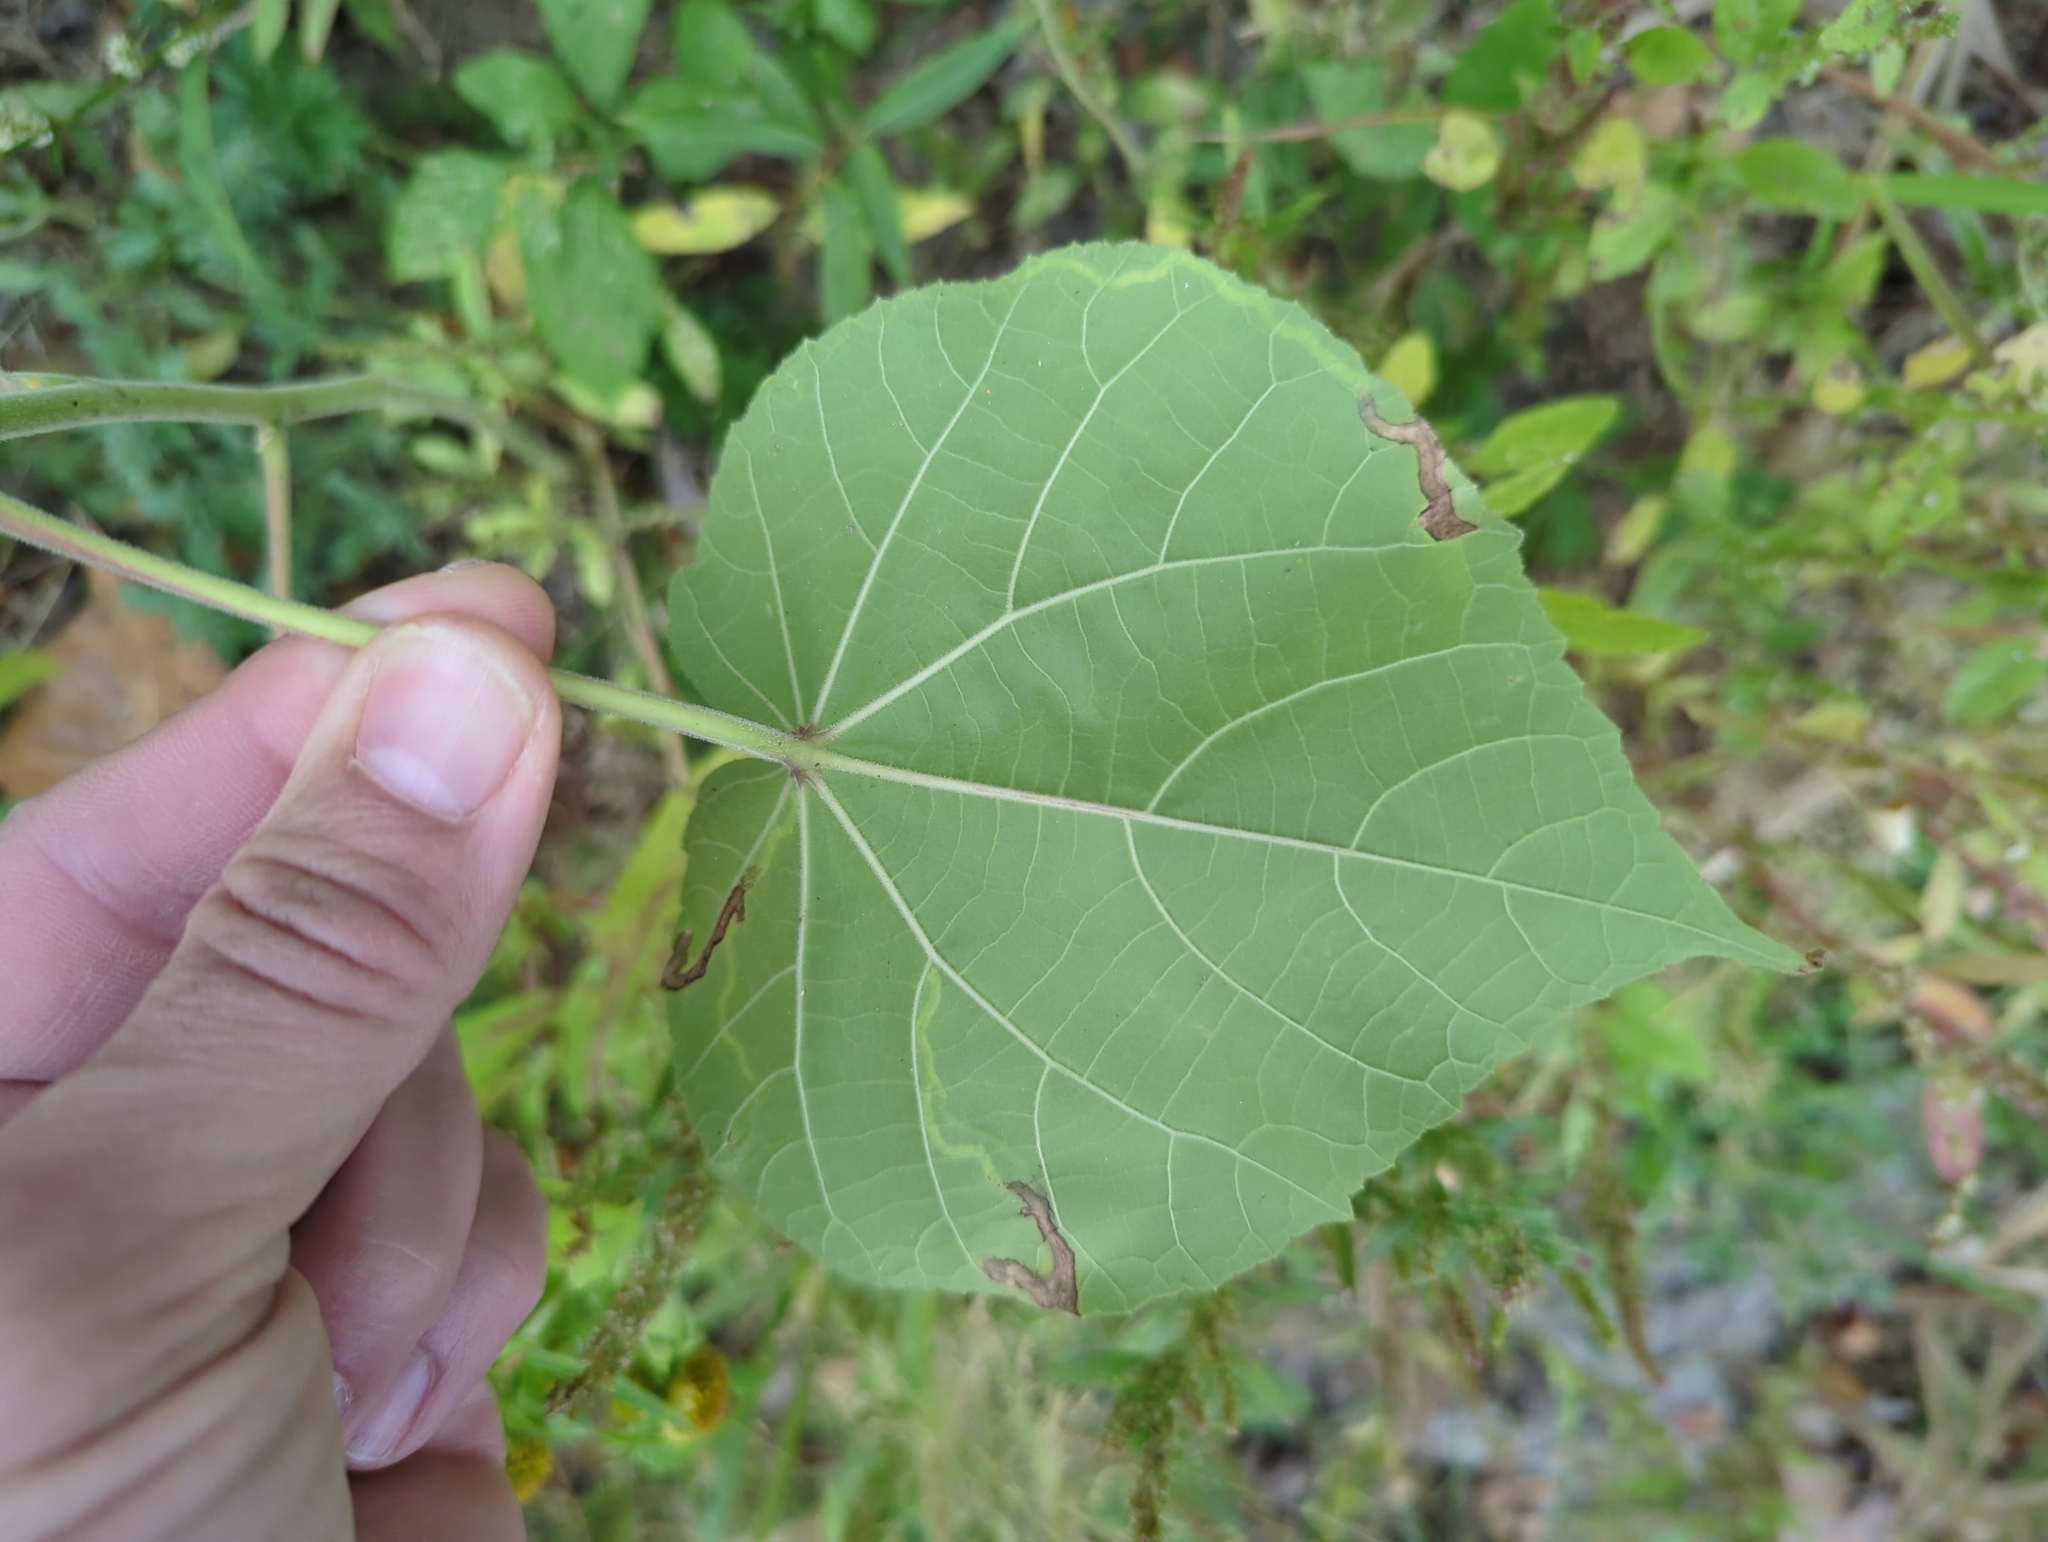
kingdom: Animalia
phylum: Arthropoda
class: Insecta
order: Diptera
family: Agromyzidae
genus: Calycomyza
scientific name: Calycomyza malvae
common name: Mallow leaf miner
